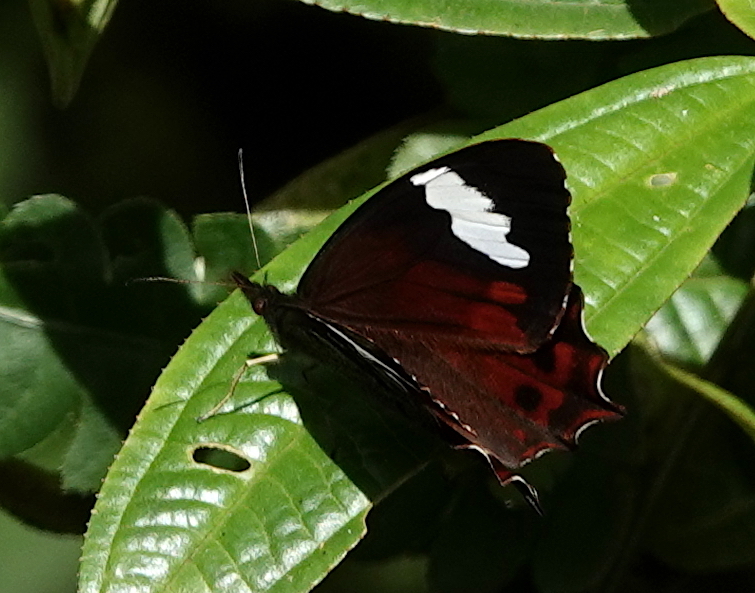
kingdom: Animalia
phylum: Arthropoda
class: Insecta
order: Lepidoptera
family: Nymphalidae
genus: Lasiophila
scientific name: Lasiophila prosymna
